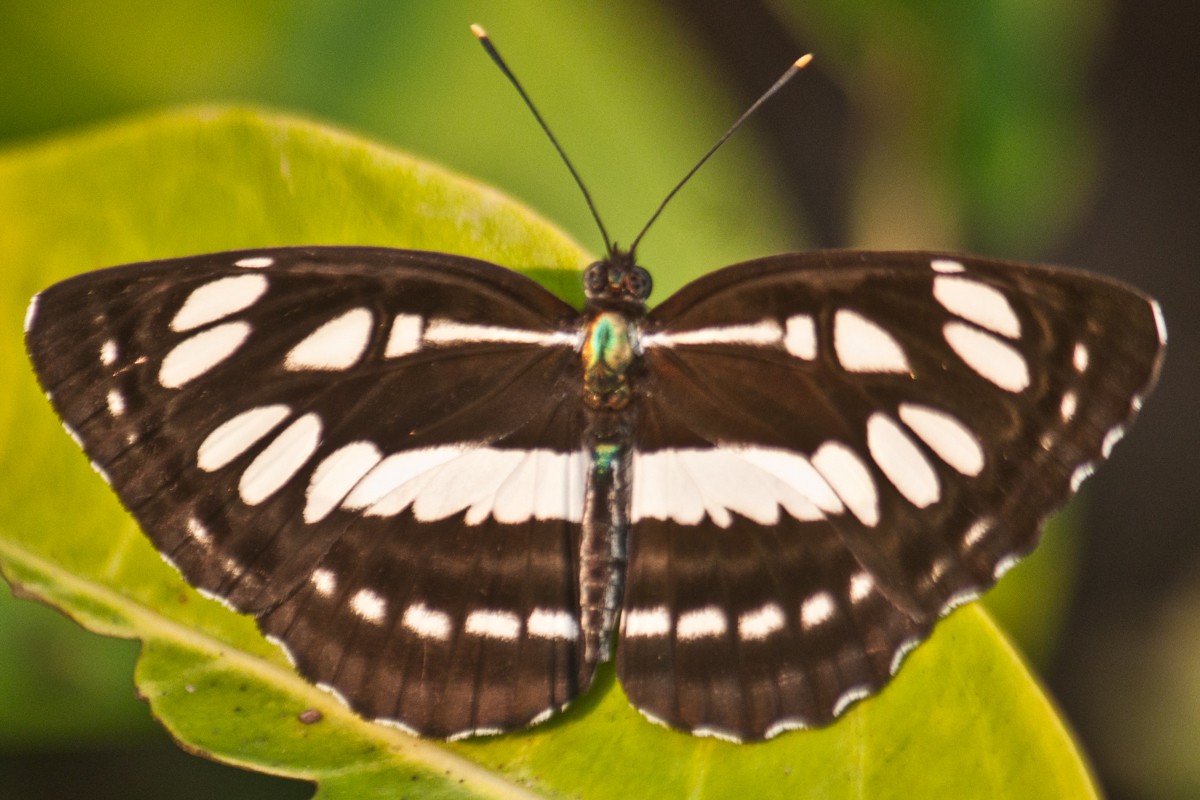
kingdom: Animalia
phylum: Arthropoda
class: Insecta
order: Lepidoptera
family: Nymphalidae
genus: Neptis
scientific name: Neptis hylas
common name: Common sailer
